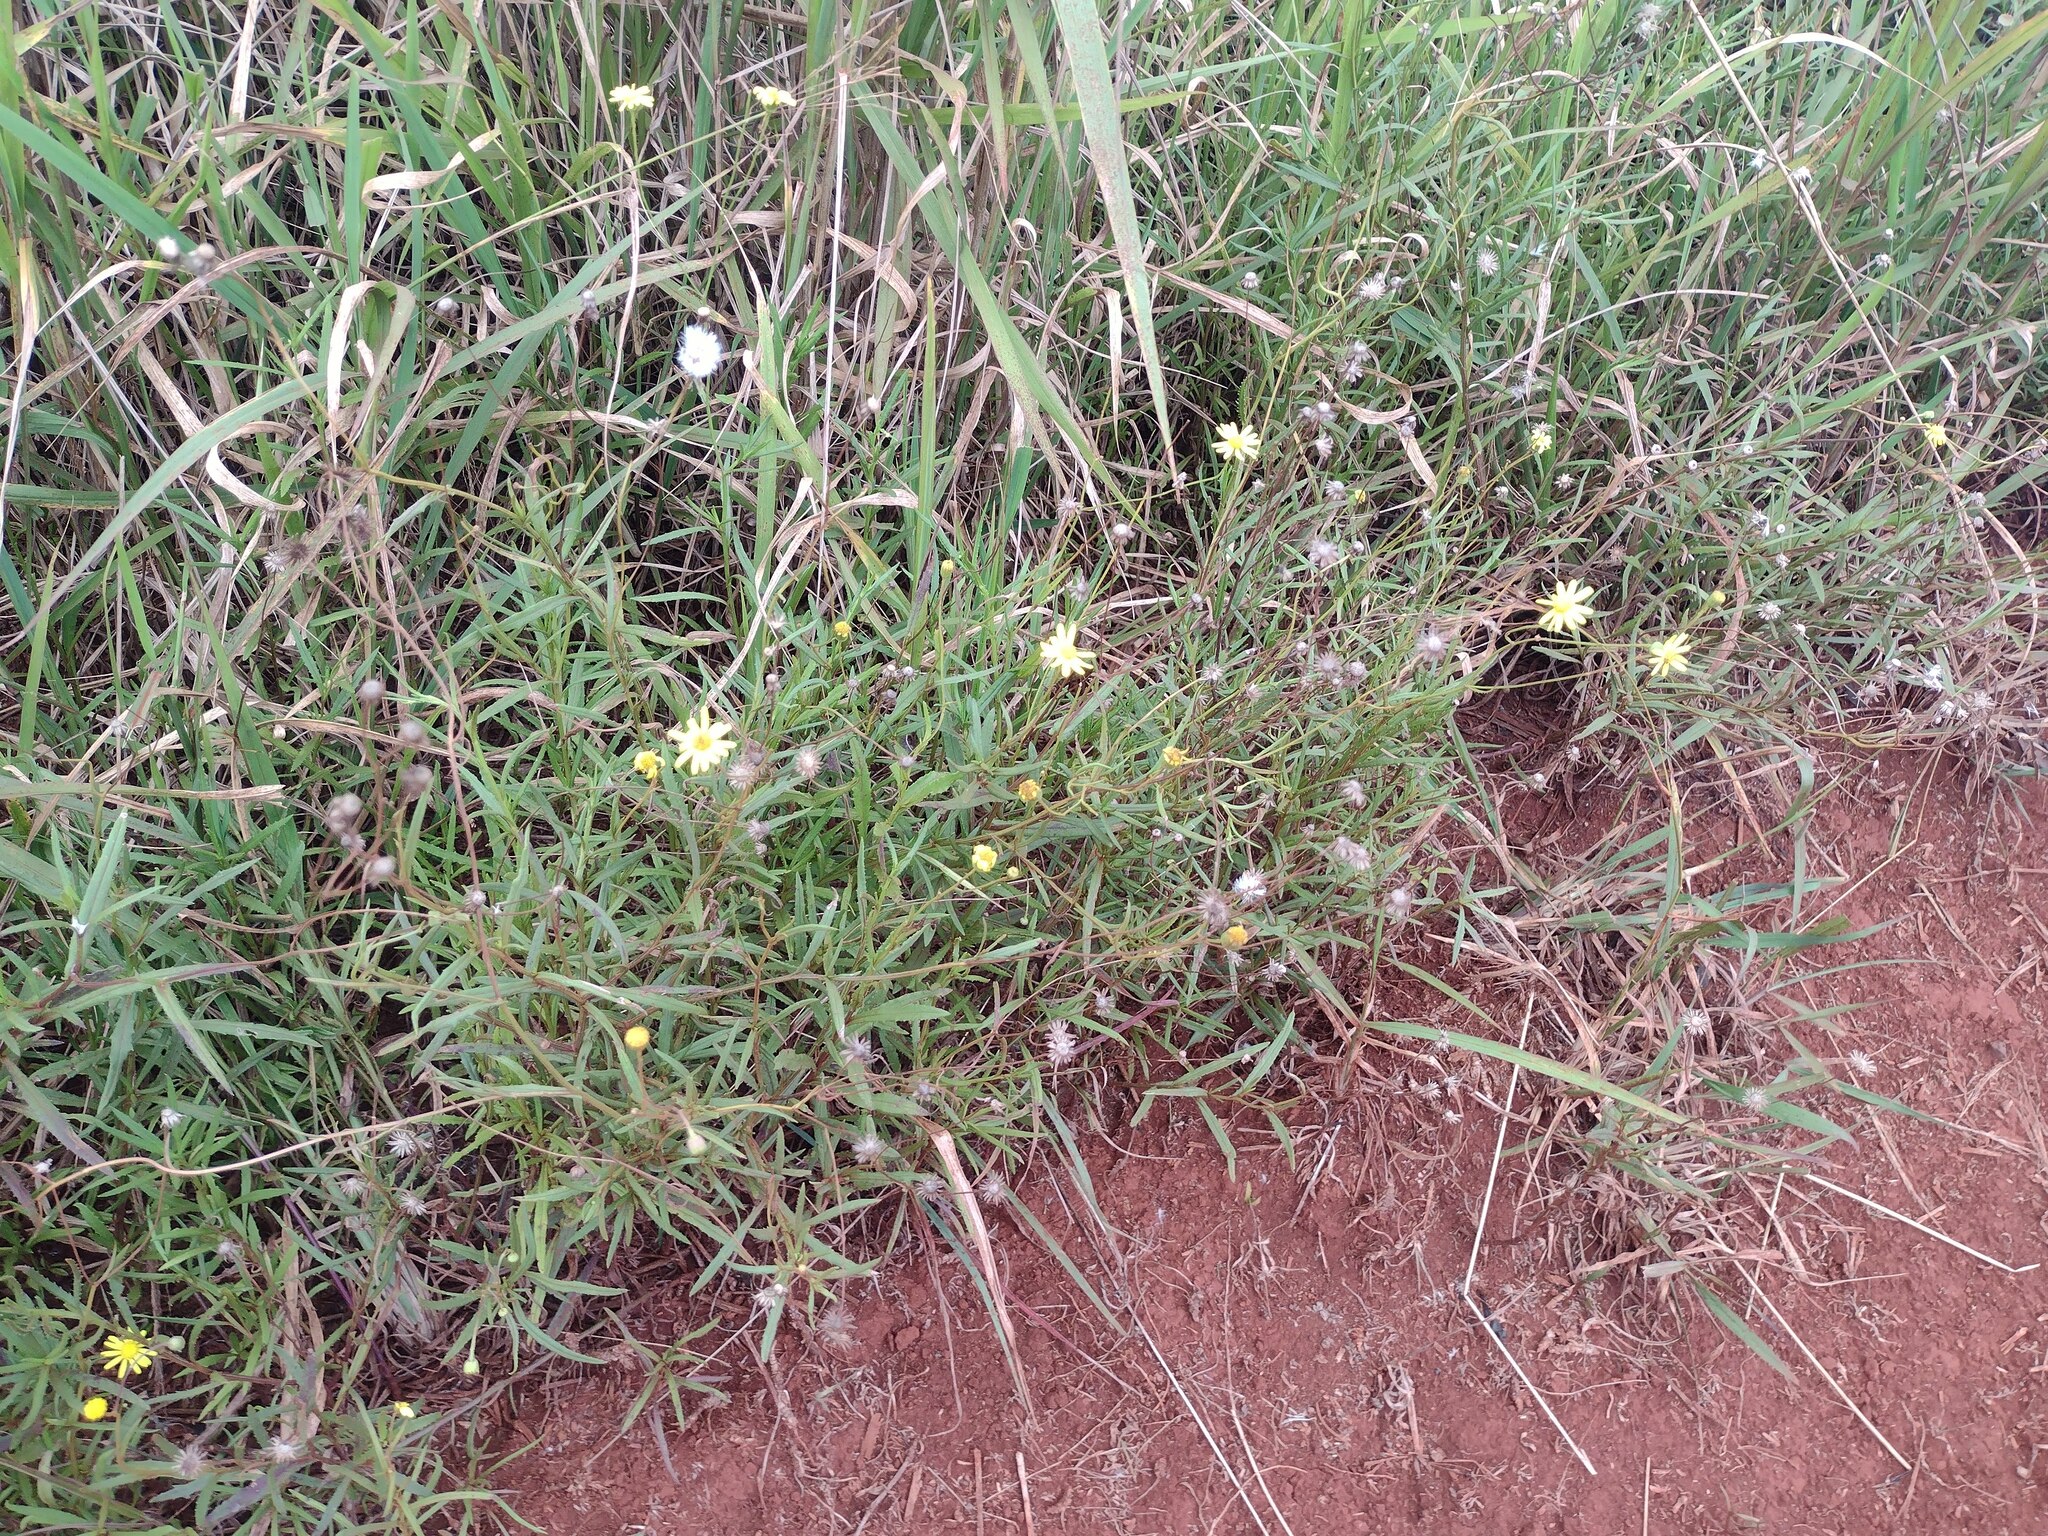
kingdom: Plantae
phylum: Tracheophyta
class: Magnoliopsida
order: Asterales
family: Asteraceae
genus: Senecio
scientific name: Senecio madagascariensis
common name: Madagascar ragwort
